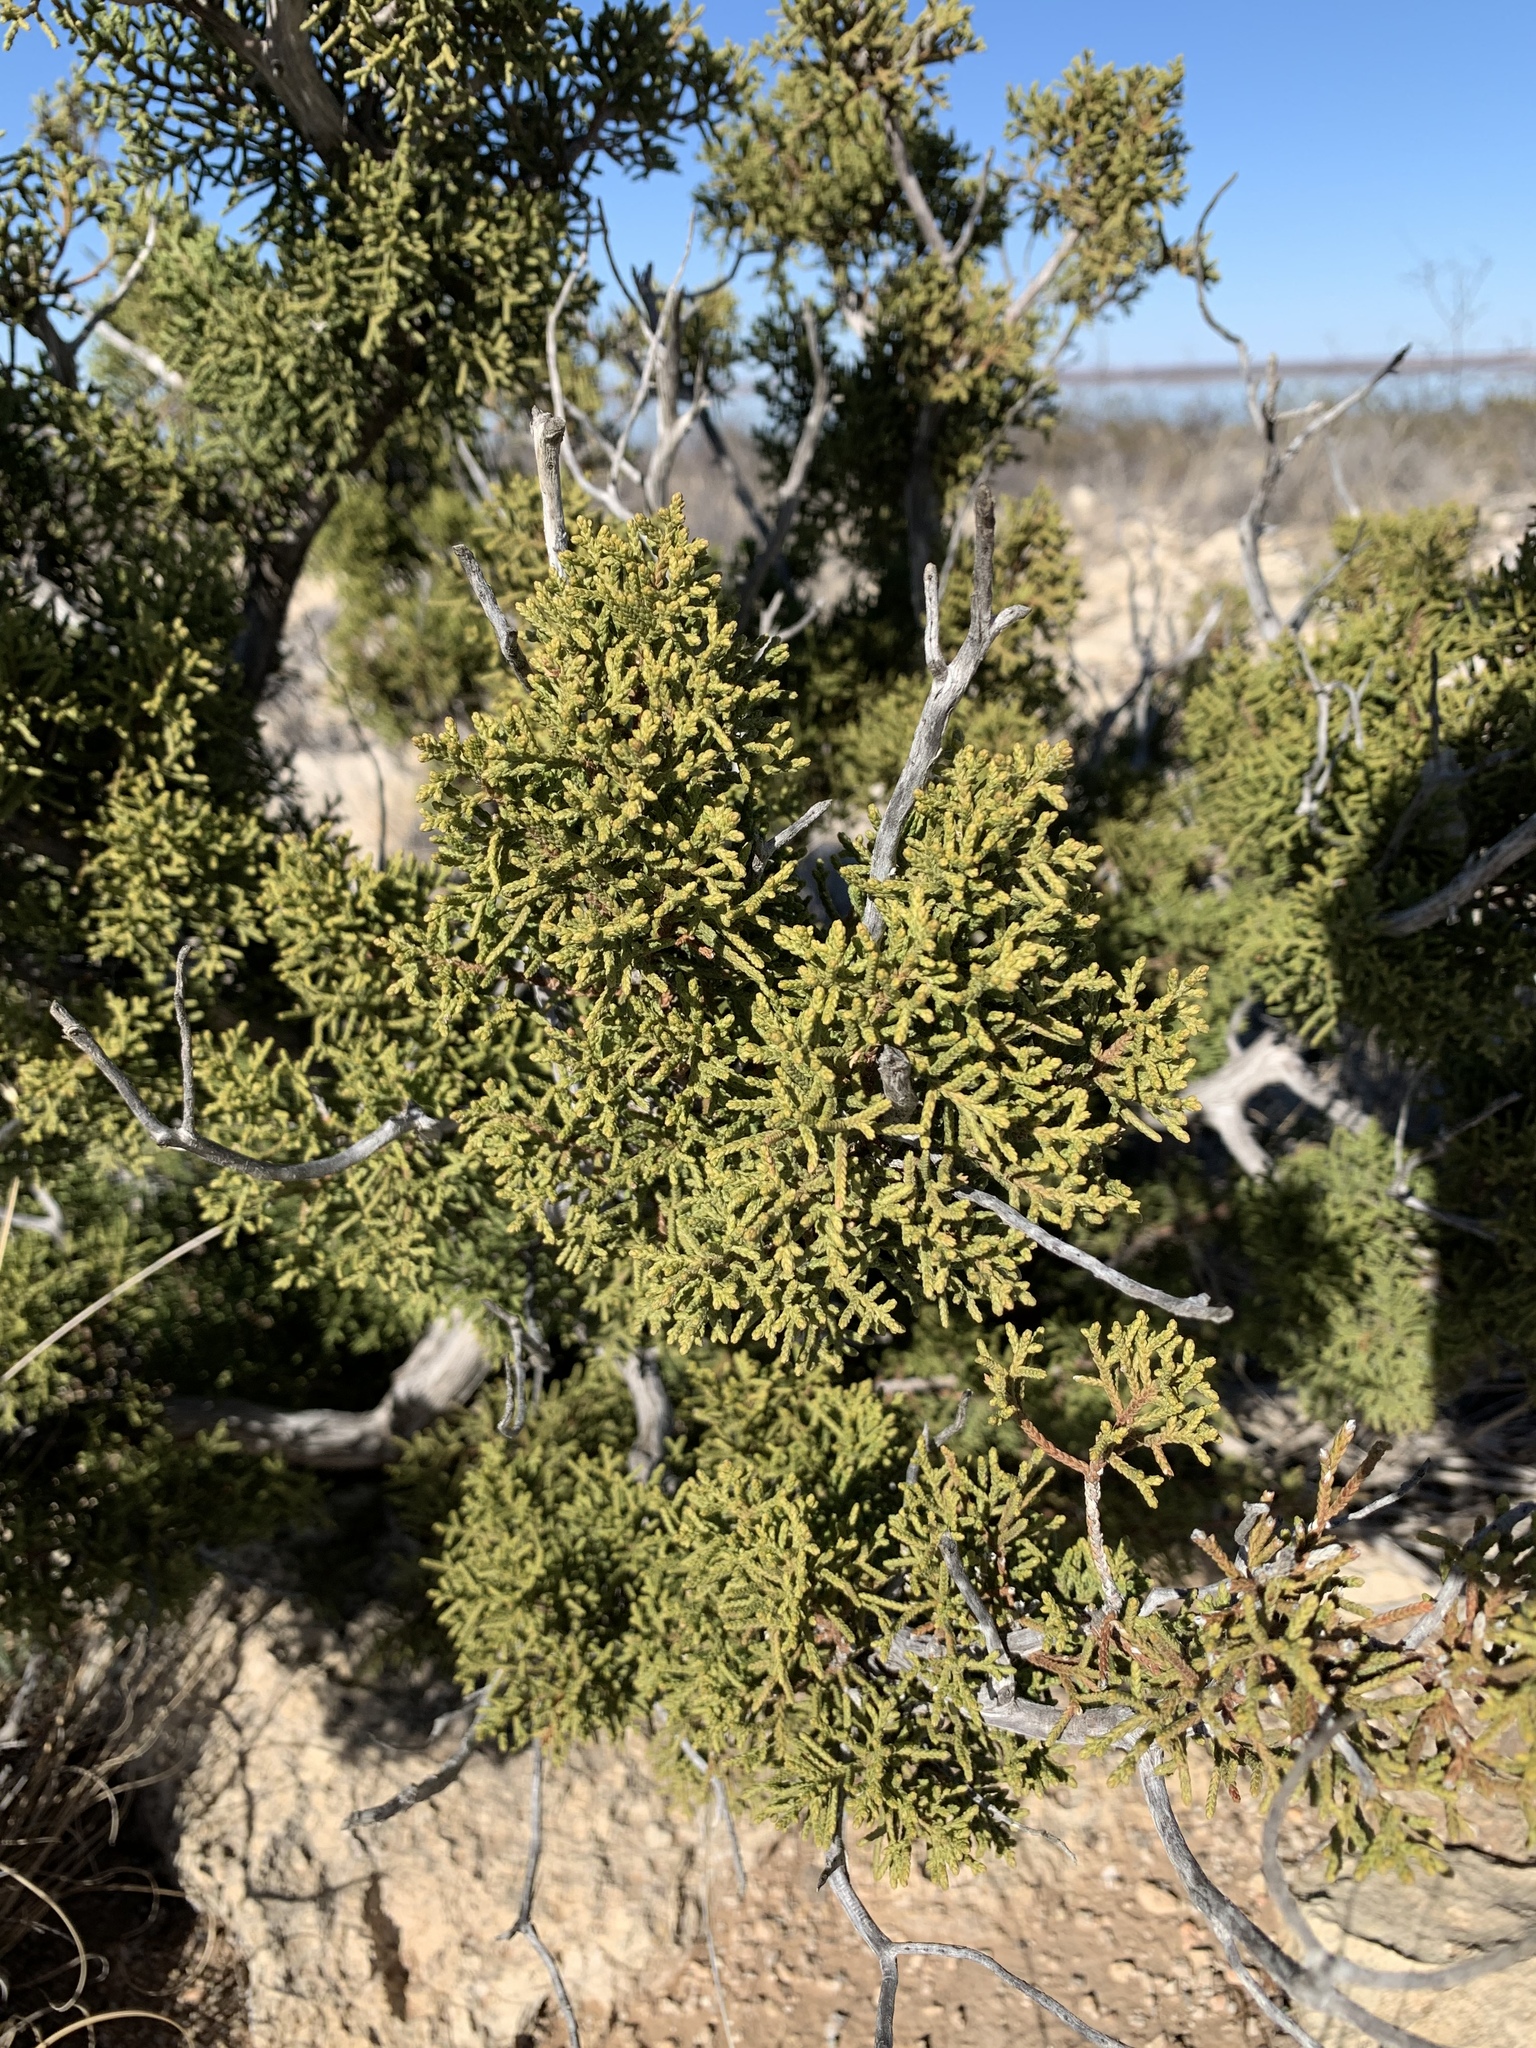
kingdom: Plantae
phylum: Tracheophyta
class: Pinopsida
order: Pinales
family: Cupressaceae
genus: Juniperus
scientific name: Juniperus pinchotii
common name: Pinchot juniper
